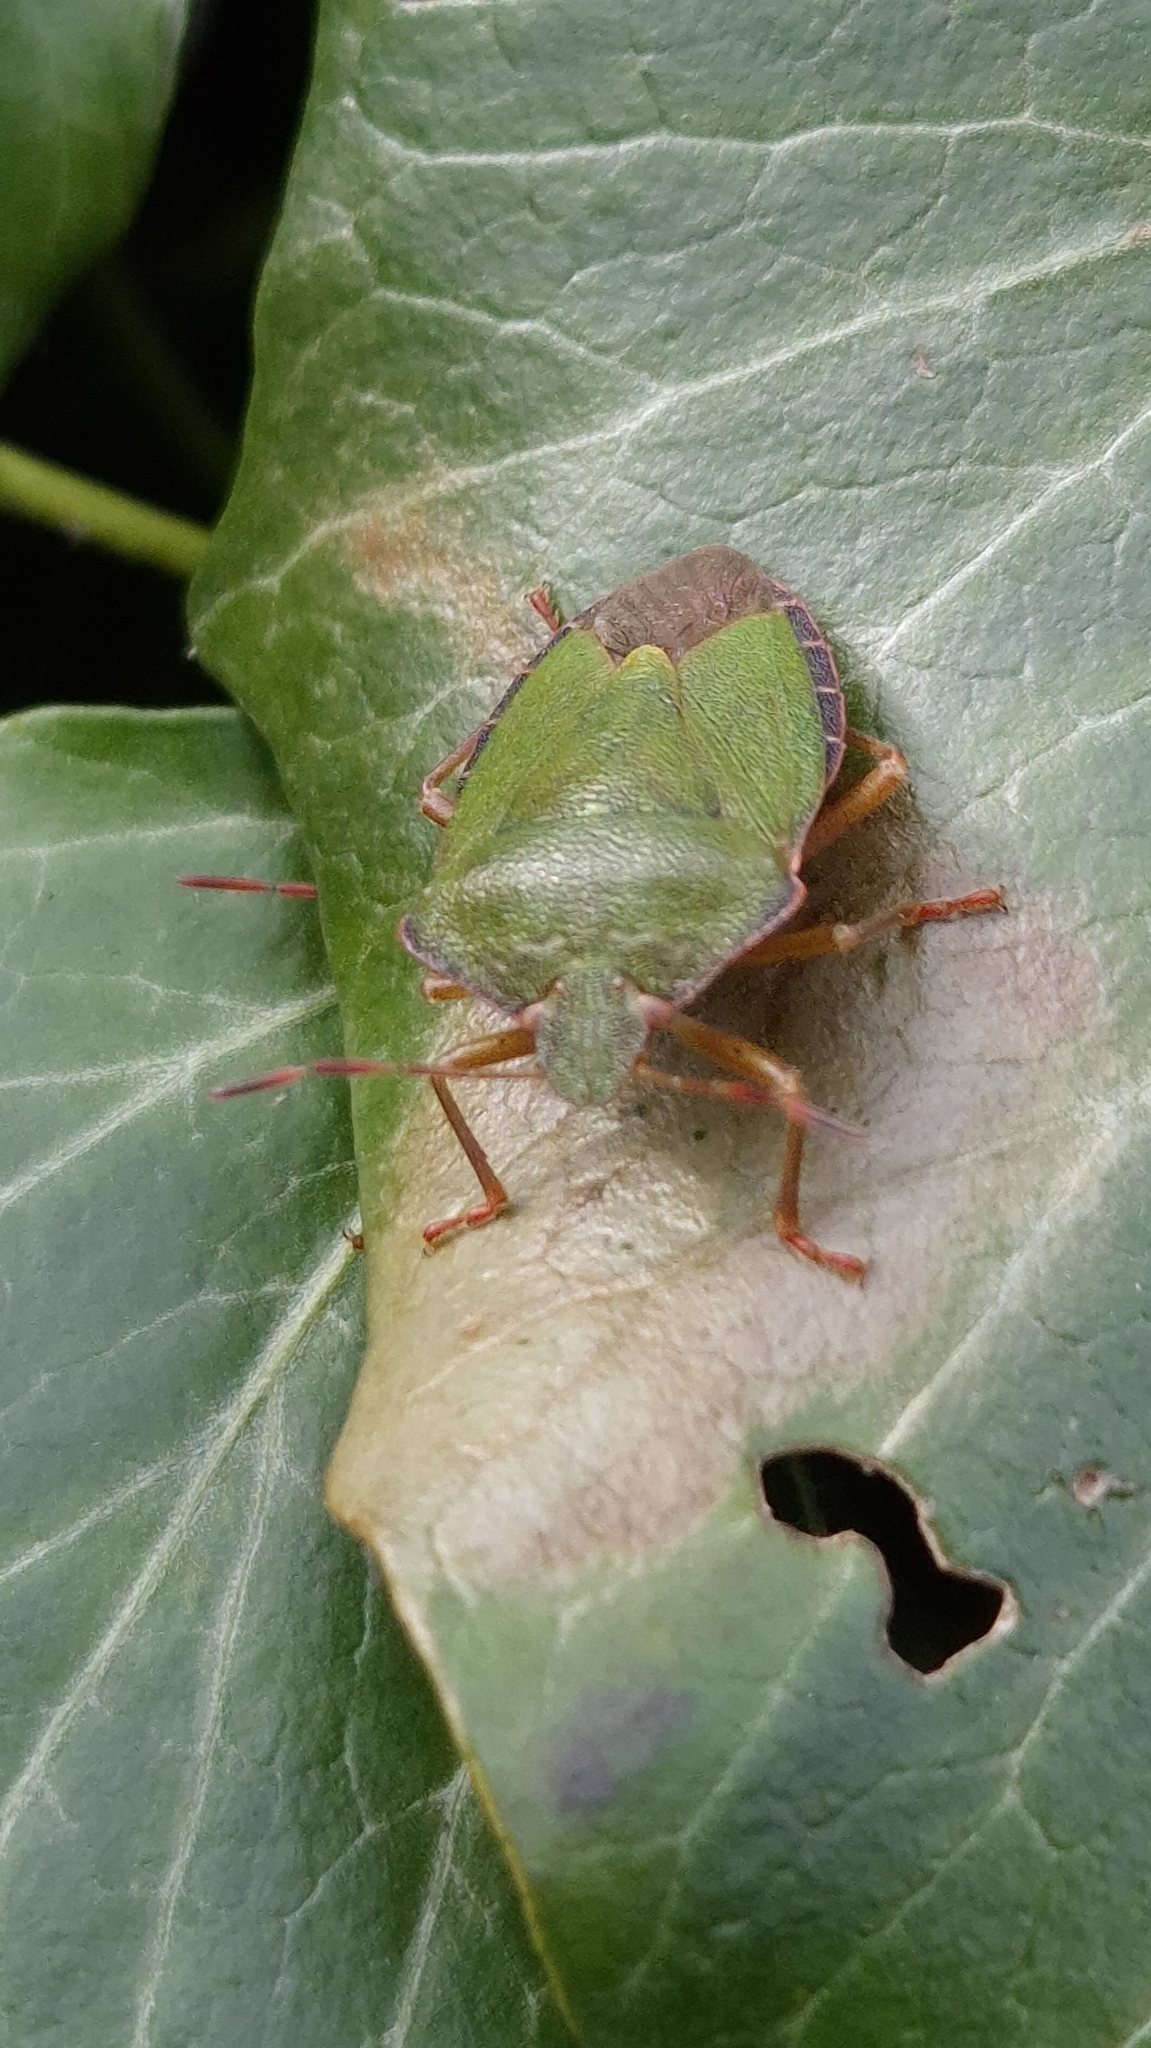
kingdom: Animalia
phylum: Arthropoda
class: Insecta
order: Hemiptera
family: Pentatomidae
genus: Palomena
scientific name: Palomena prasina
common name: Green shieldbug
